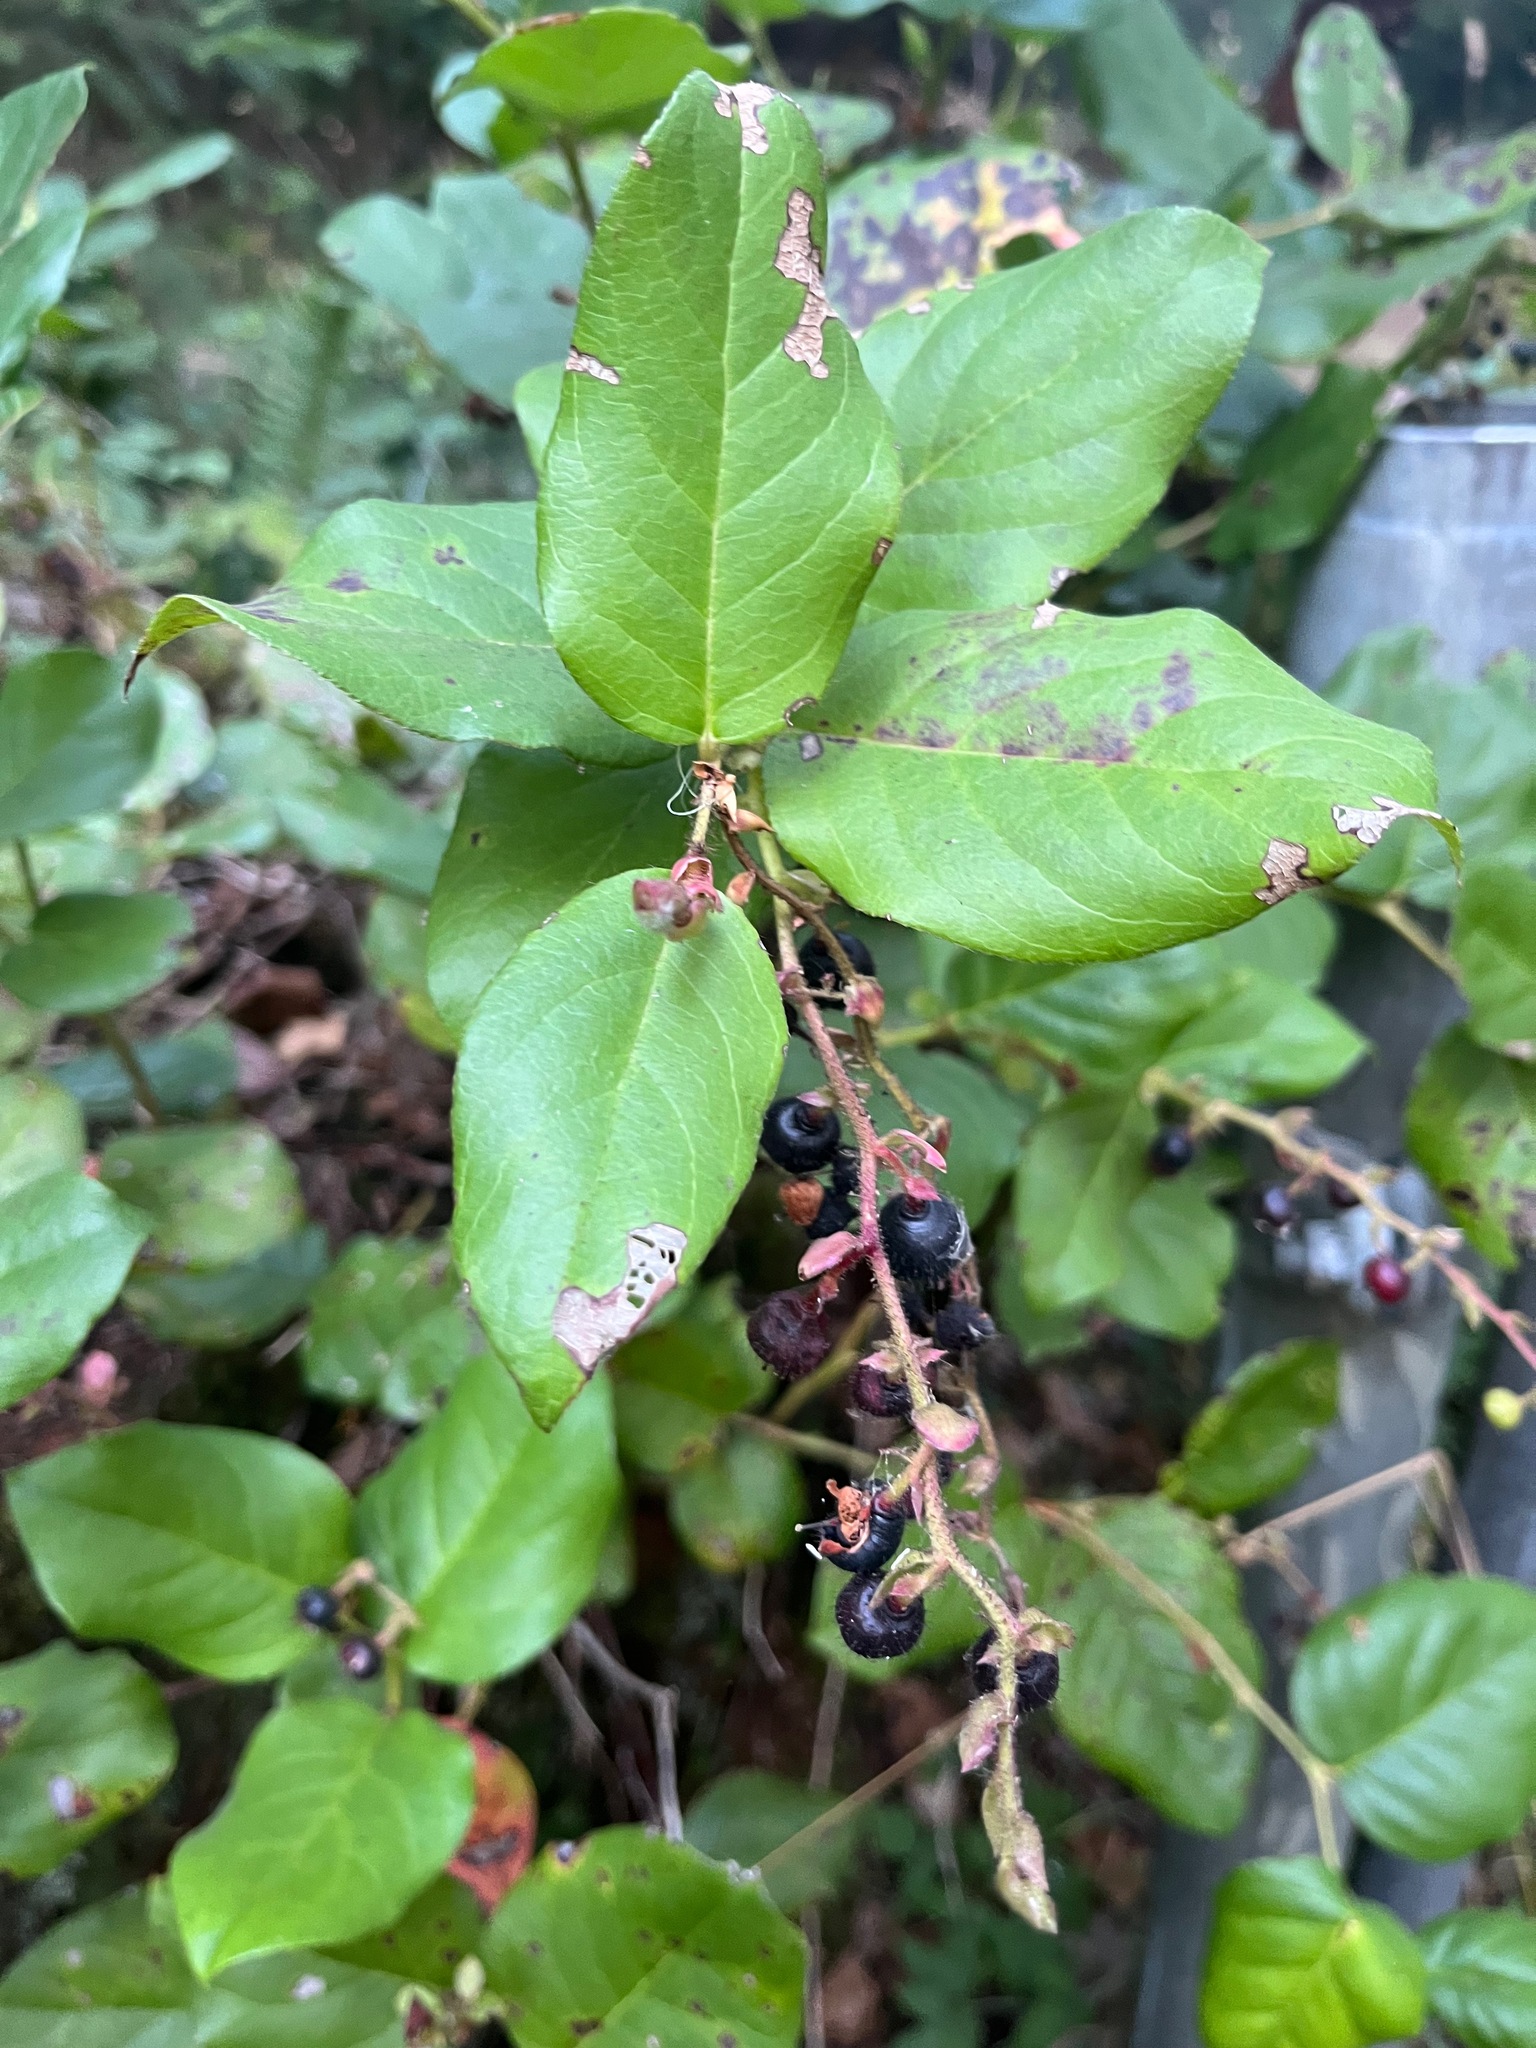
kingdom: Plantae
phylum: Tracheophyta
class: Magnoliopsida
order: Ericales
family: Ericaceae
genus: Gaultheria
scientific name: Gaultheria shallon
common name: Shallon
